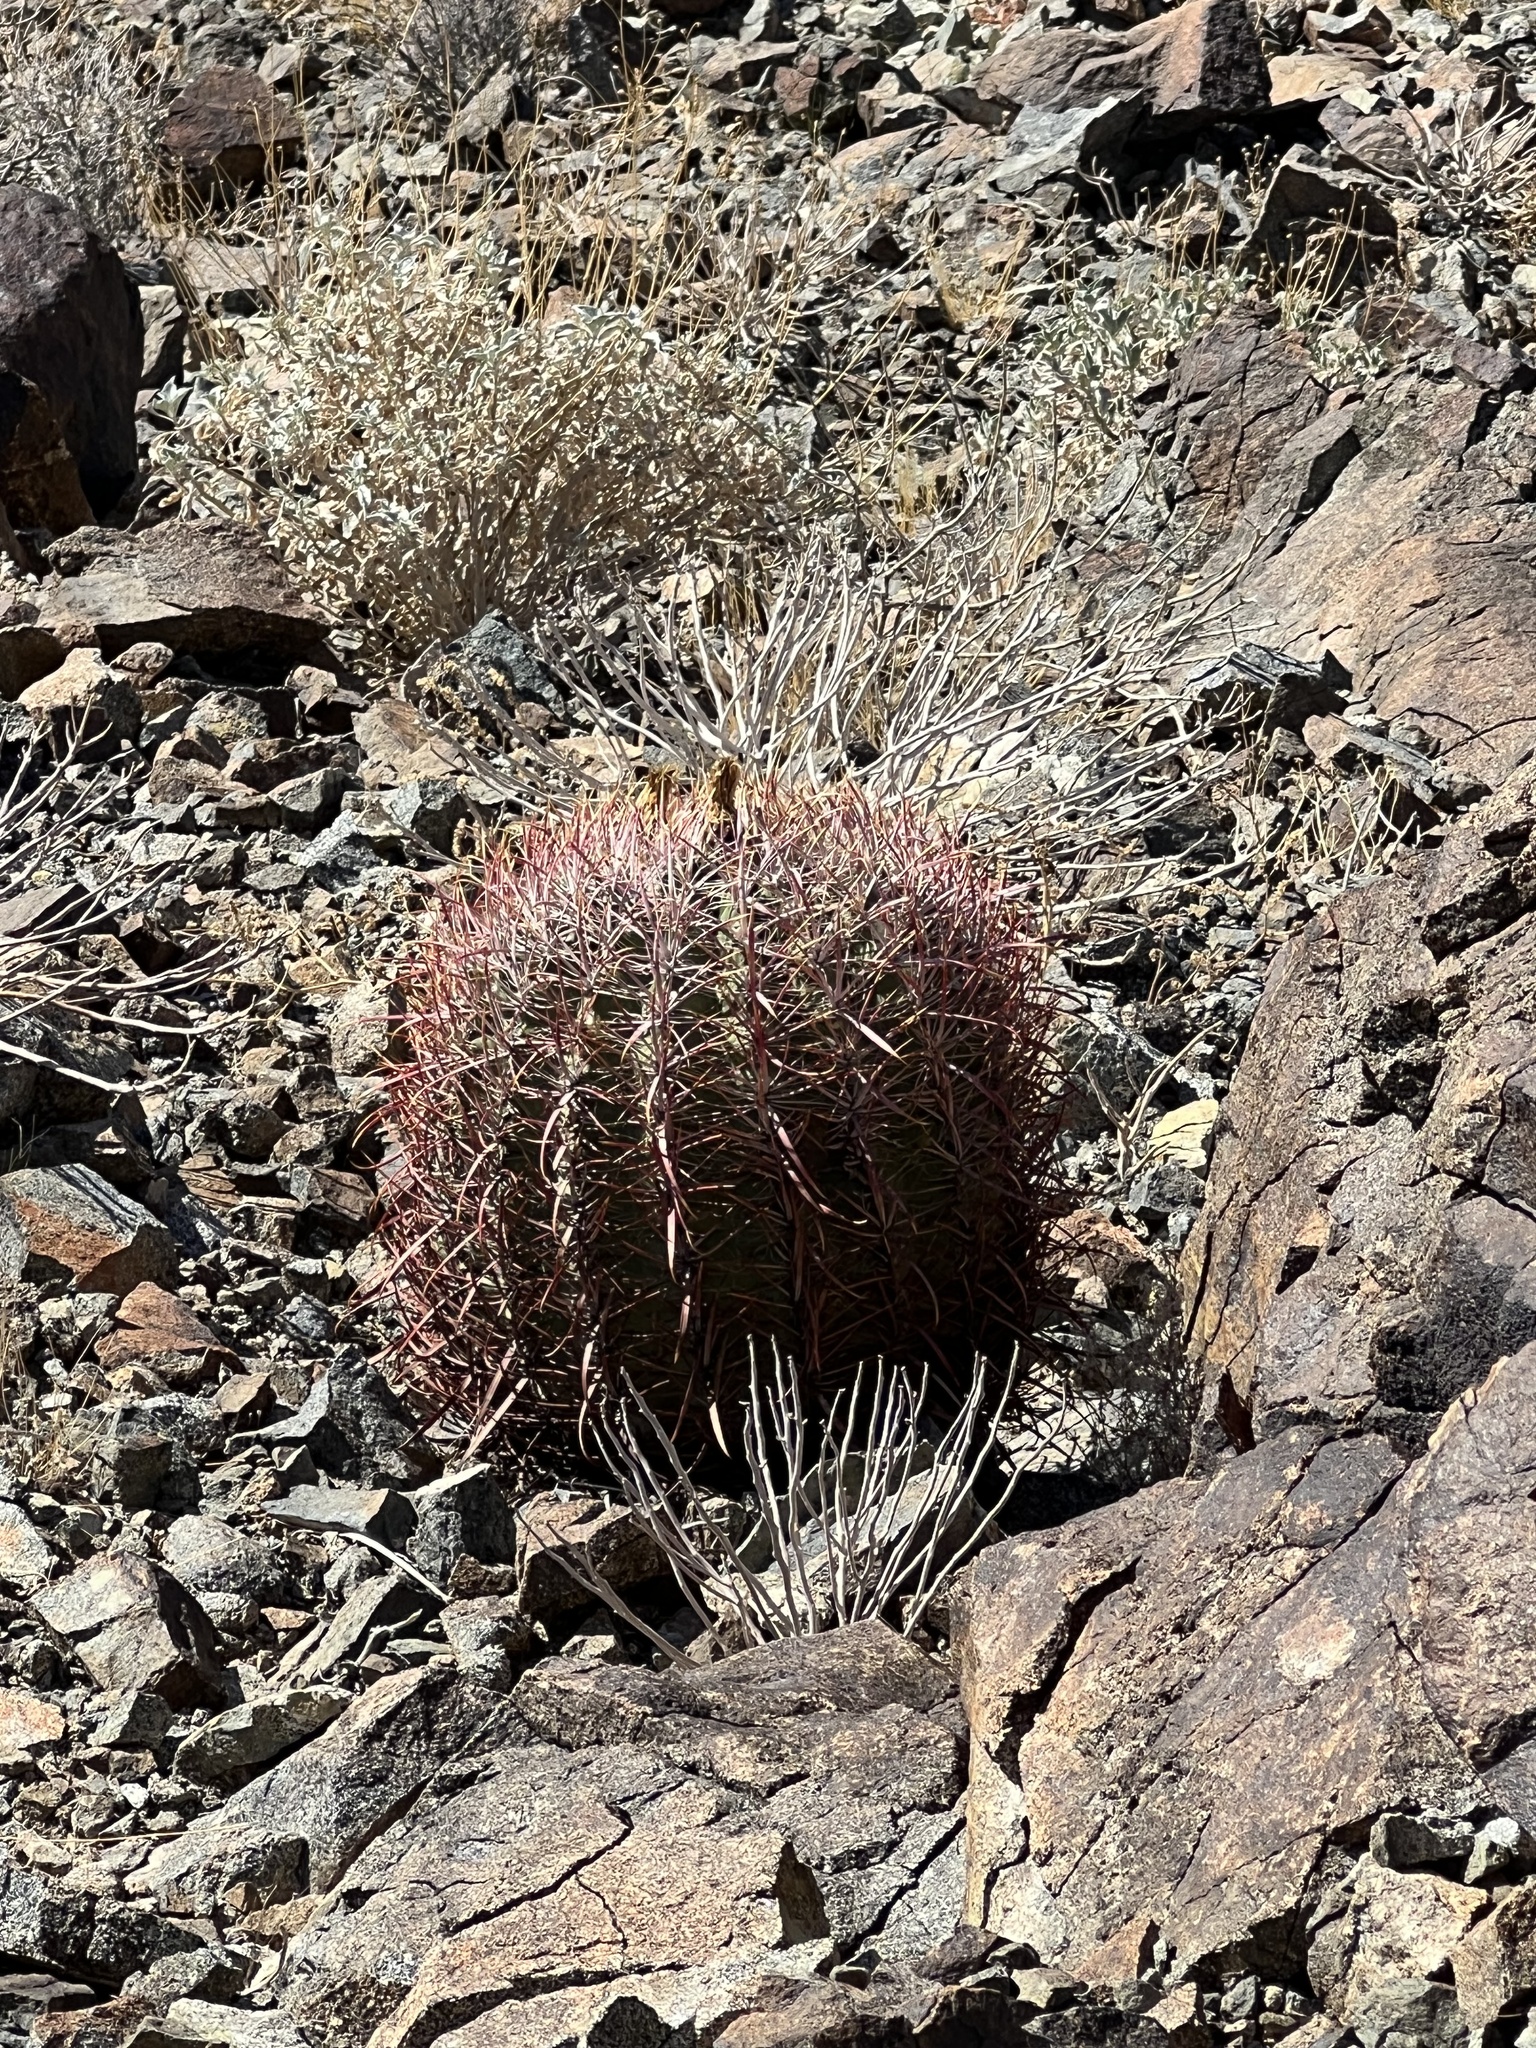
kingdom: Plantae
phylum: Tracheophyta
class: Magnoliopsida
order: Caryophyllales
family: Cactaceae
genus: Ferocactus
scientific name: Ferocactus cylindraceus
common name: California barrel cactus
